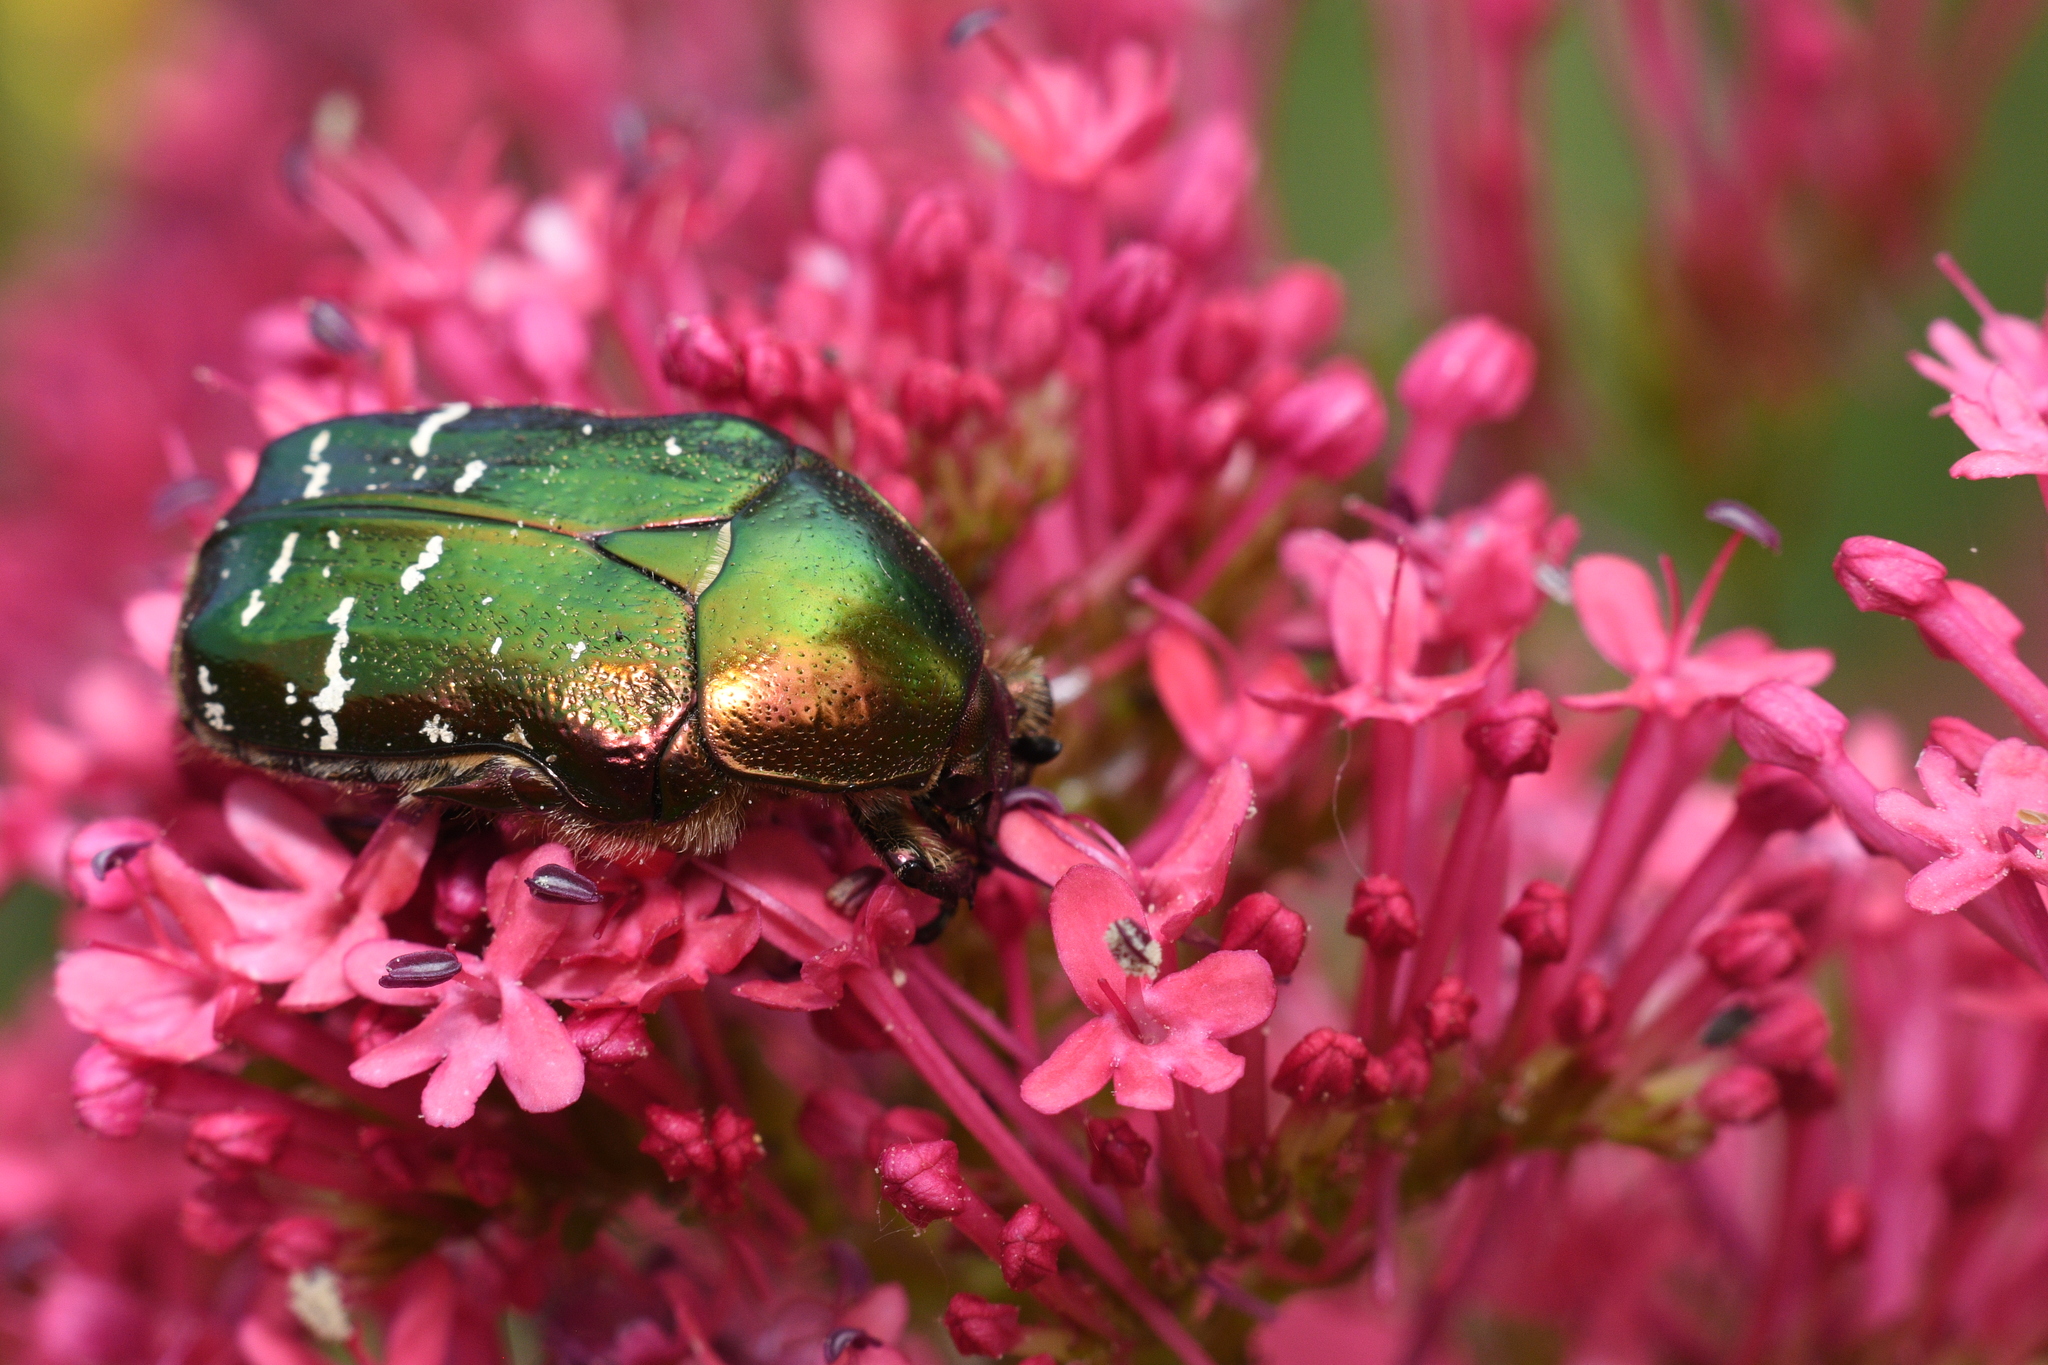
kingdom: Animalia
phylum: Arthropoda
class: Insecta
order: Coleoptera
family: Scarabaeidae
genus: Cetonia
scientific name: Cetonia aurata
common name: Rose chafer
